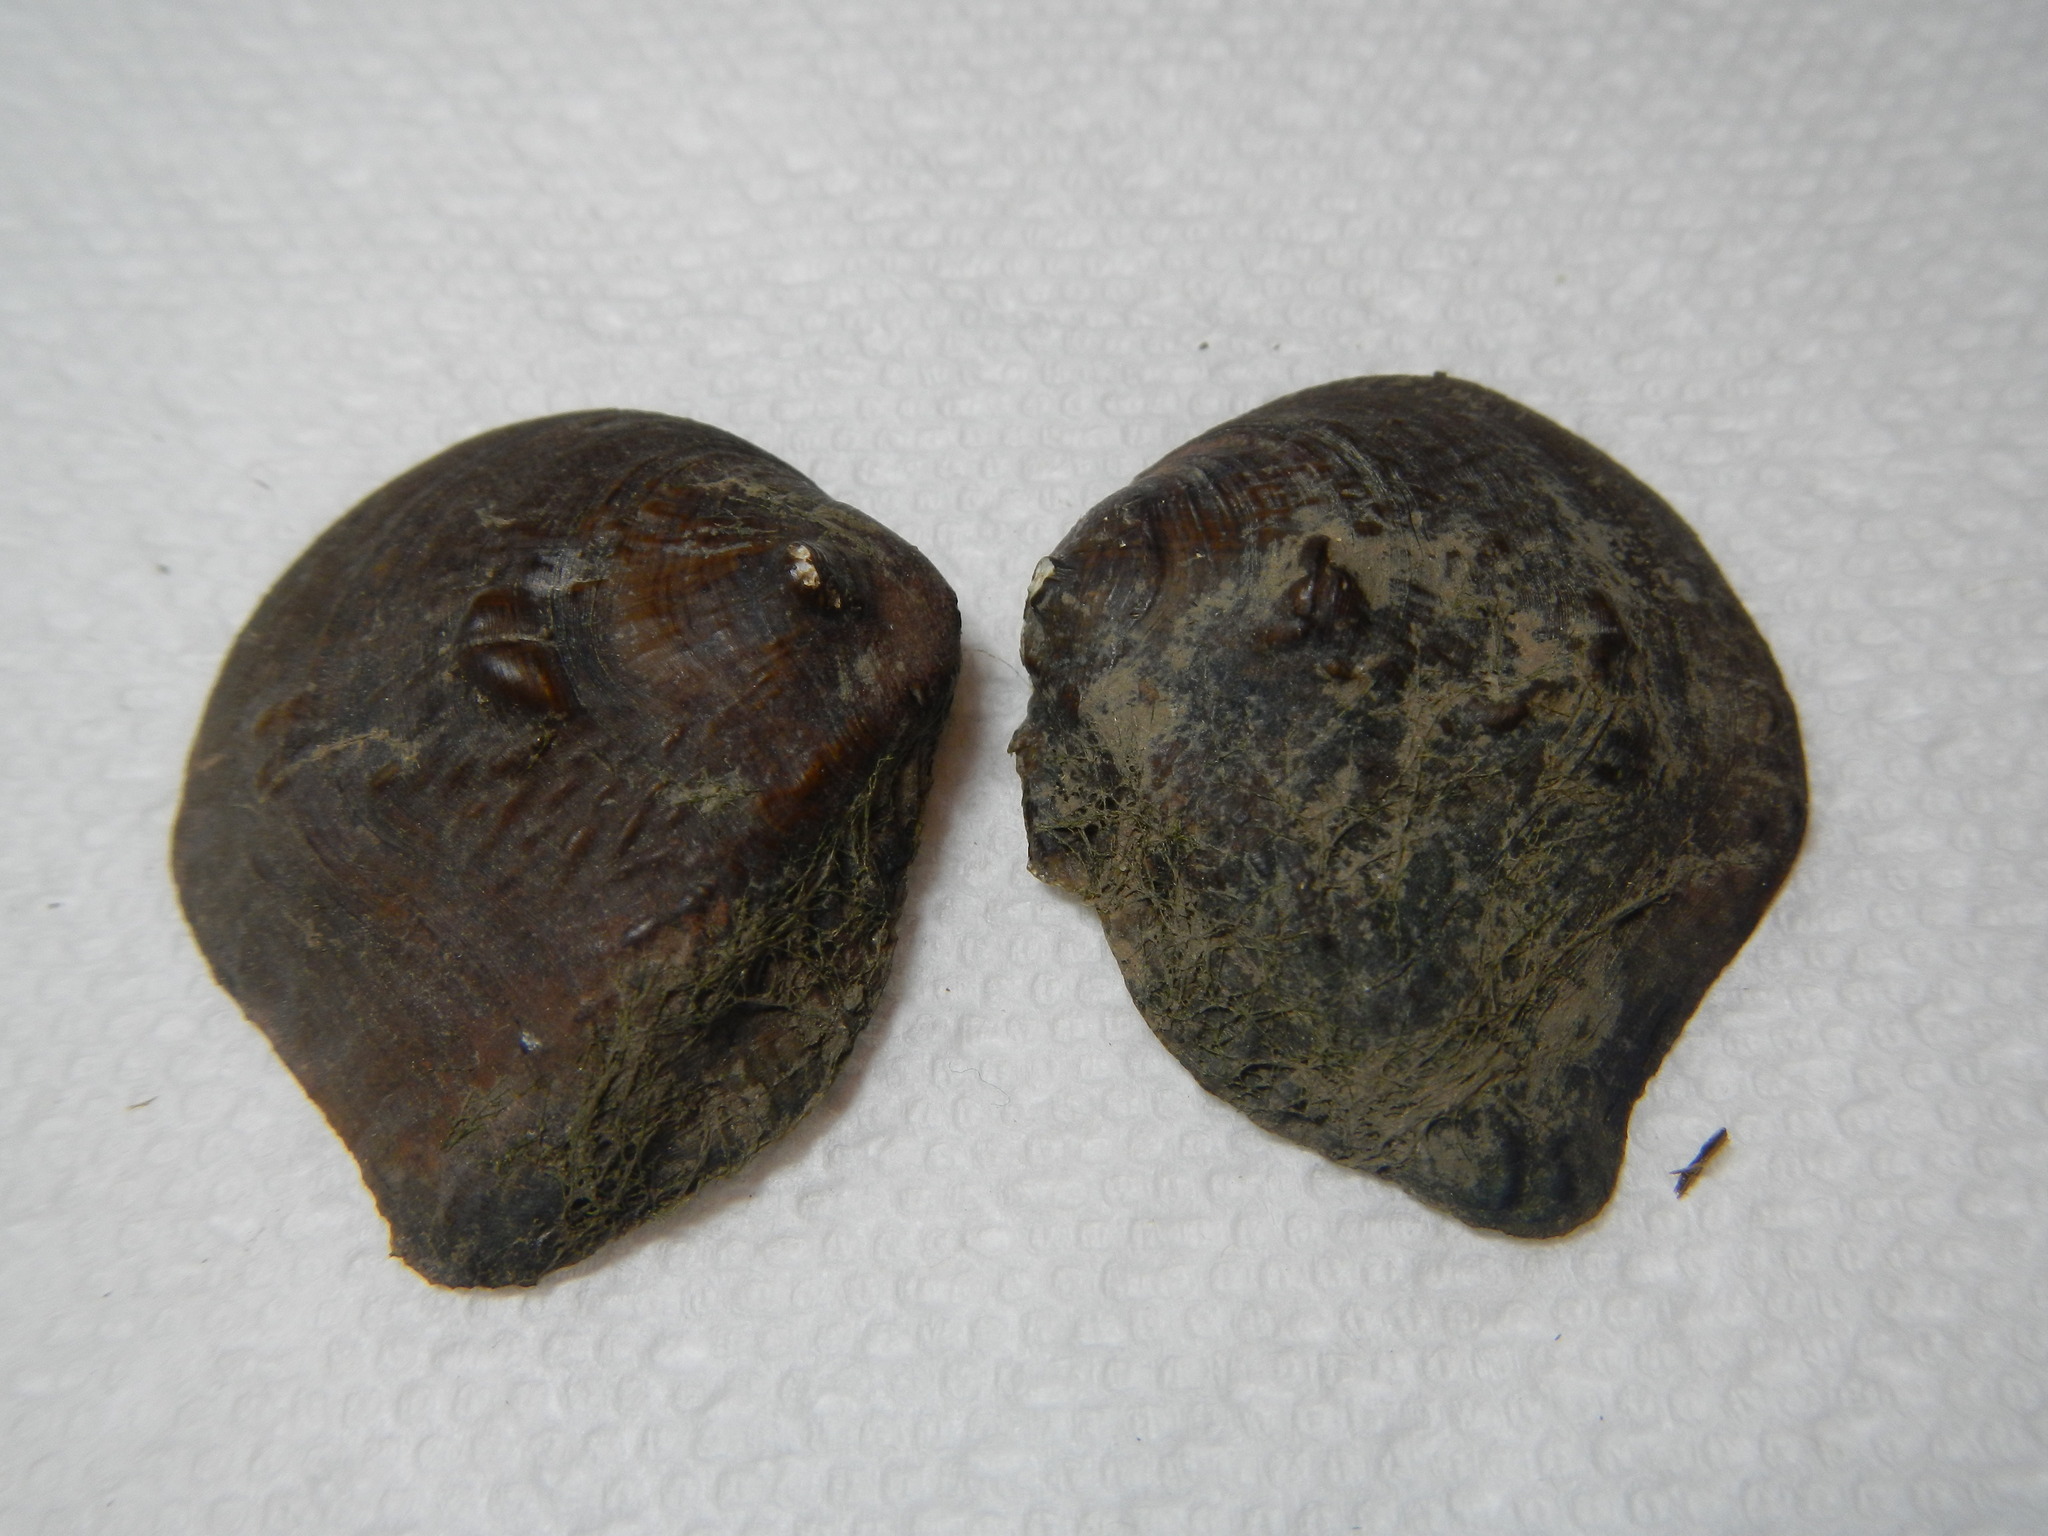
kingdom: Animalia
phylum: Mollusca
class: Bivalvia
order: Unionida
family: Unionidae
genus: Obliquaria
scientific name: Obliquaria reflexa
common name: Threehorn wartyback
